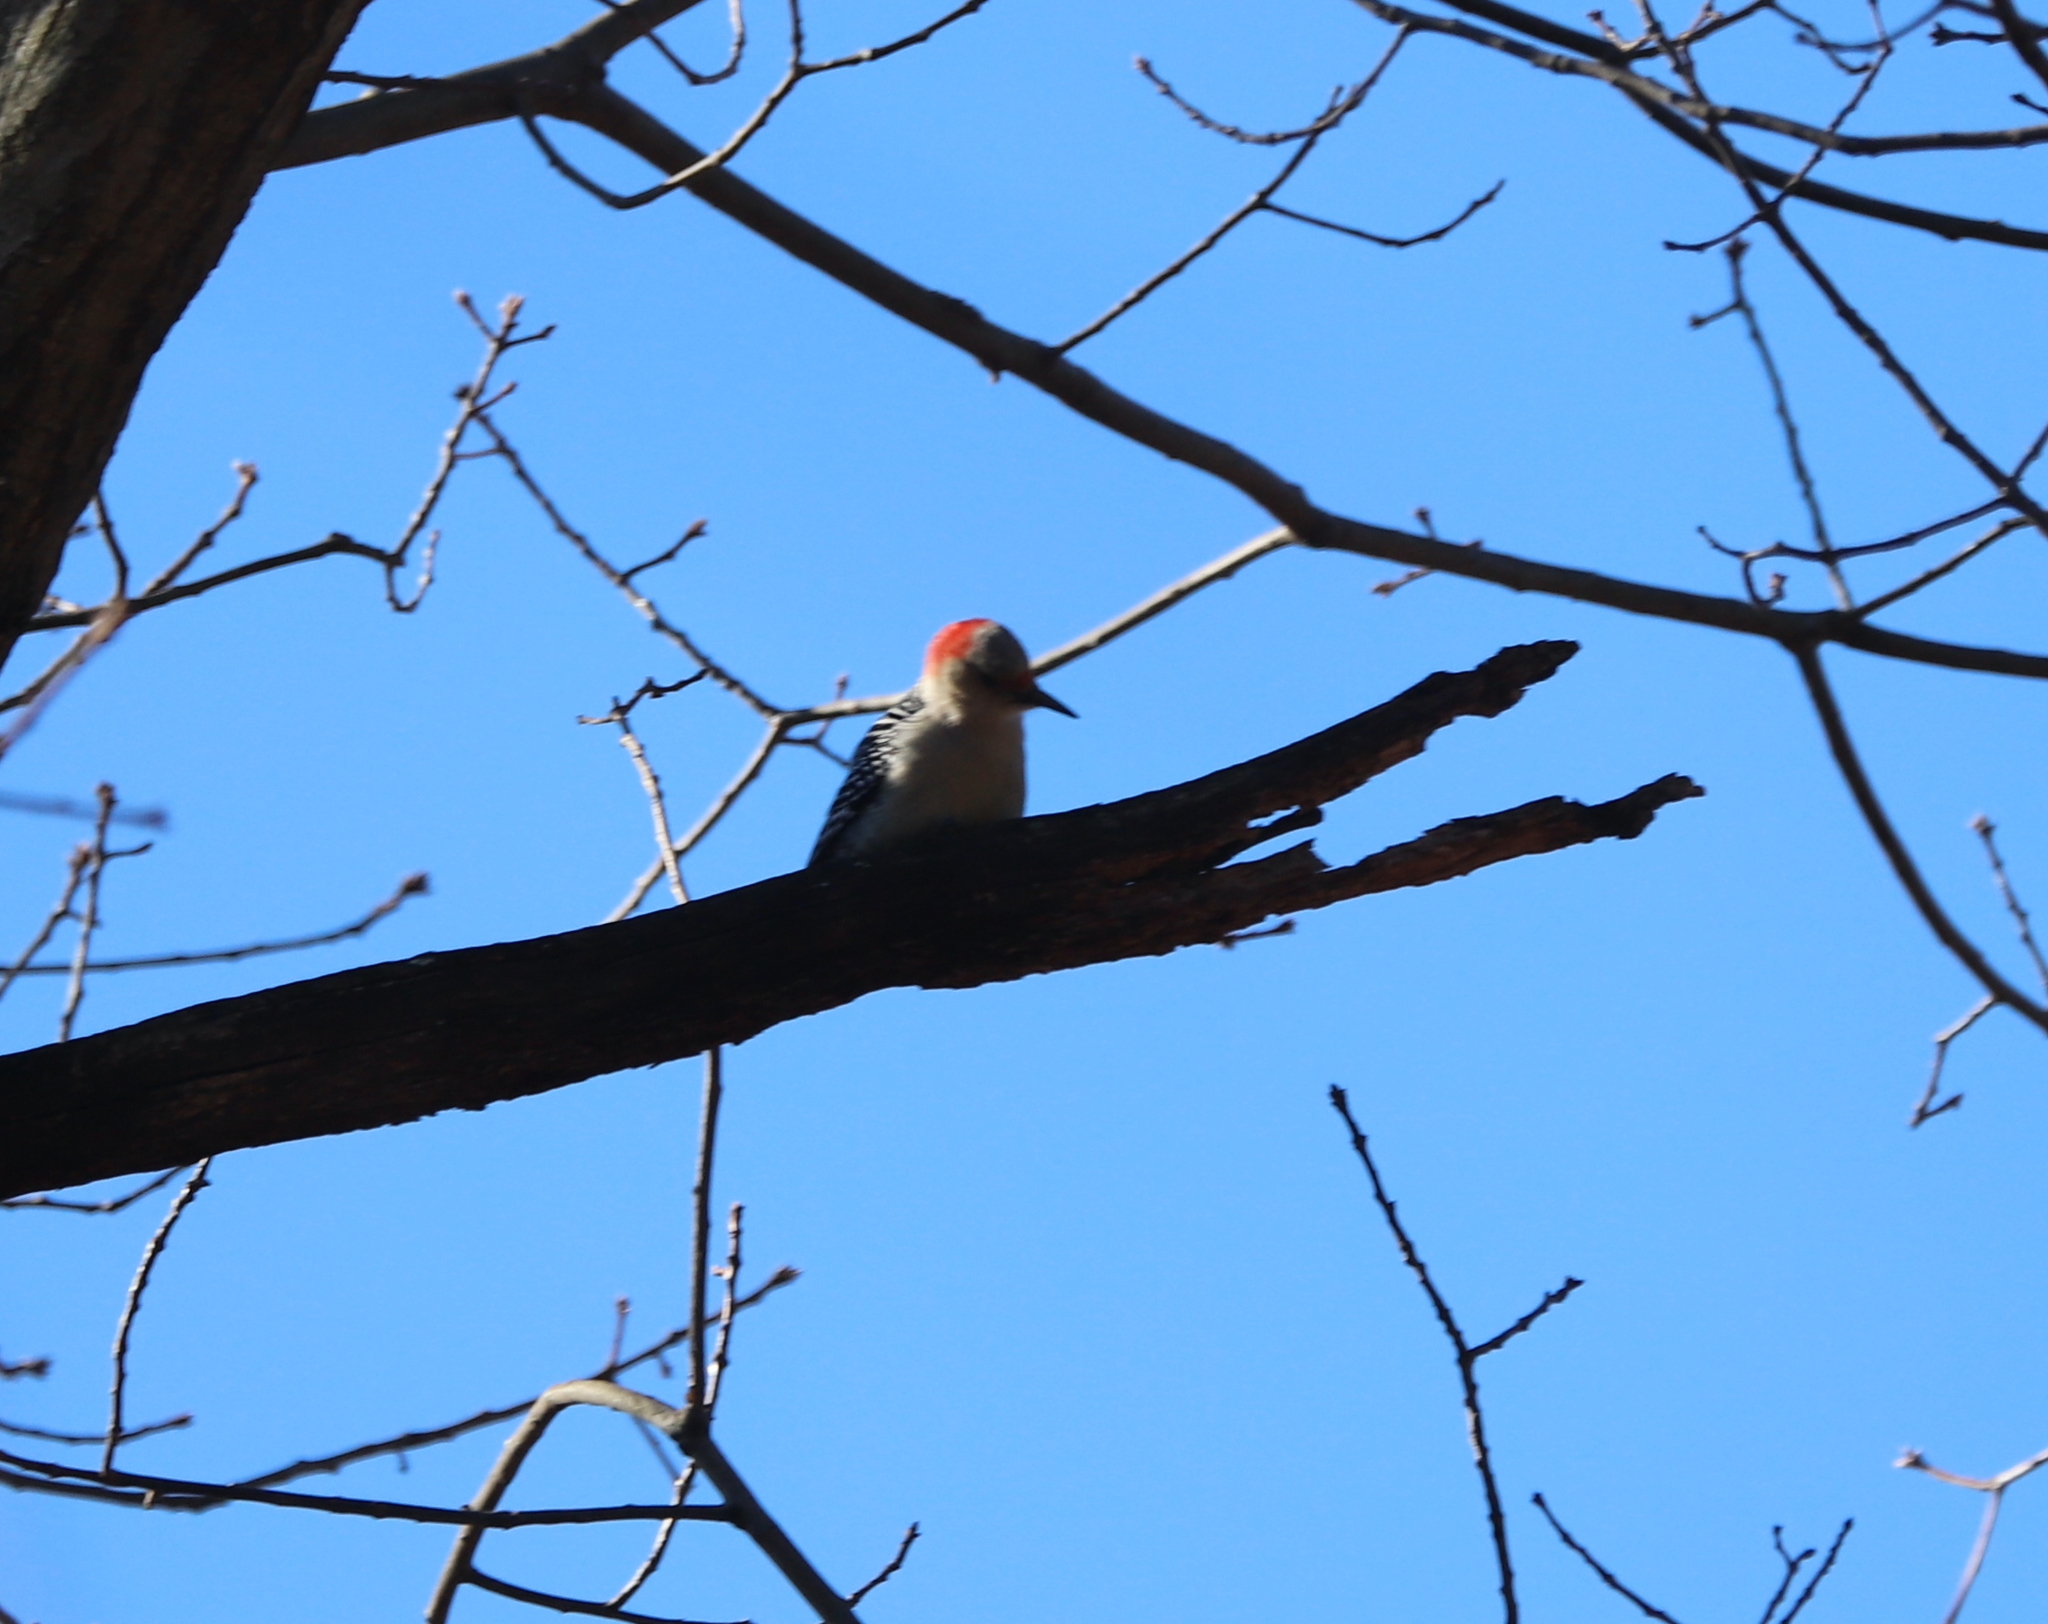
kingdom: Animalia
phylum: Chordata
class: Aves
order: Piciformes
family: Picidae
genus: Melanerpes
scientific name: Melanerpes carolinus
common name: Red-bellied woodpecker
